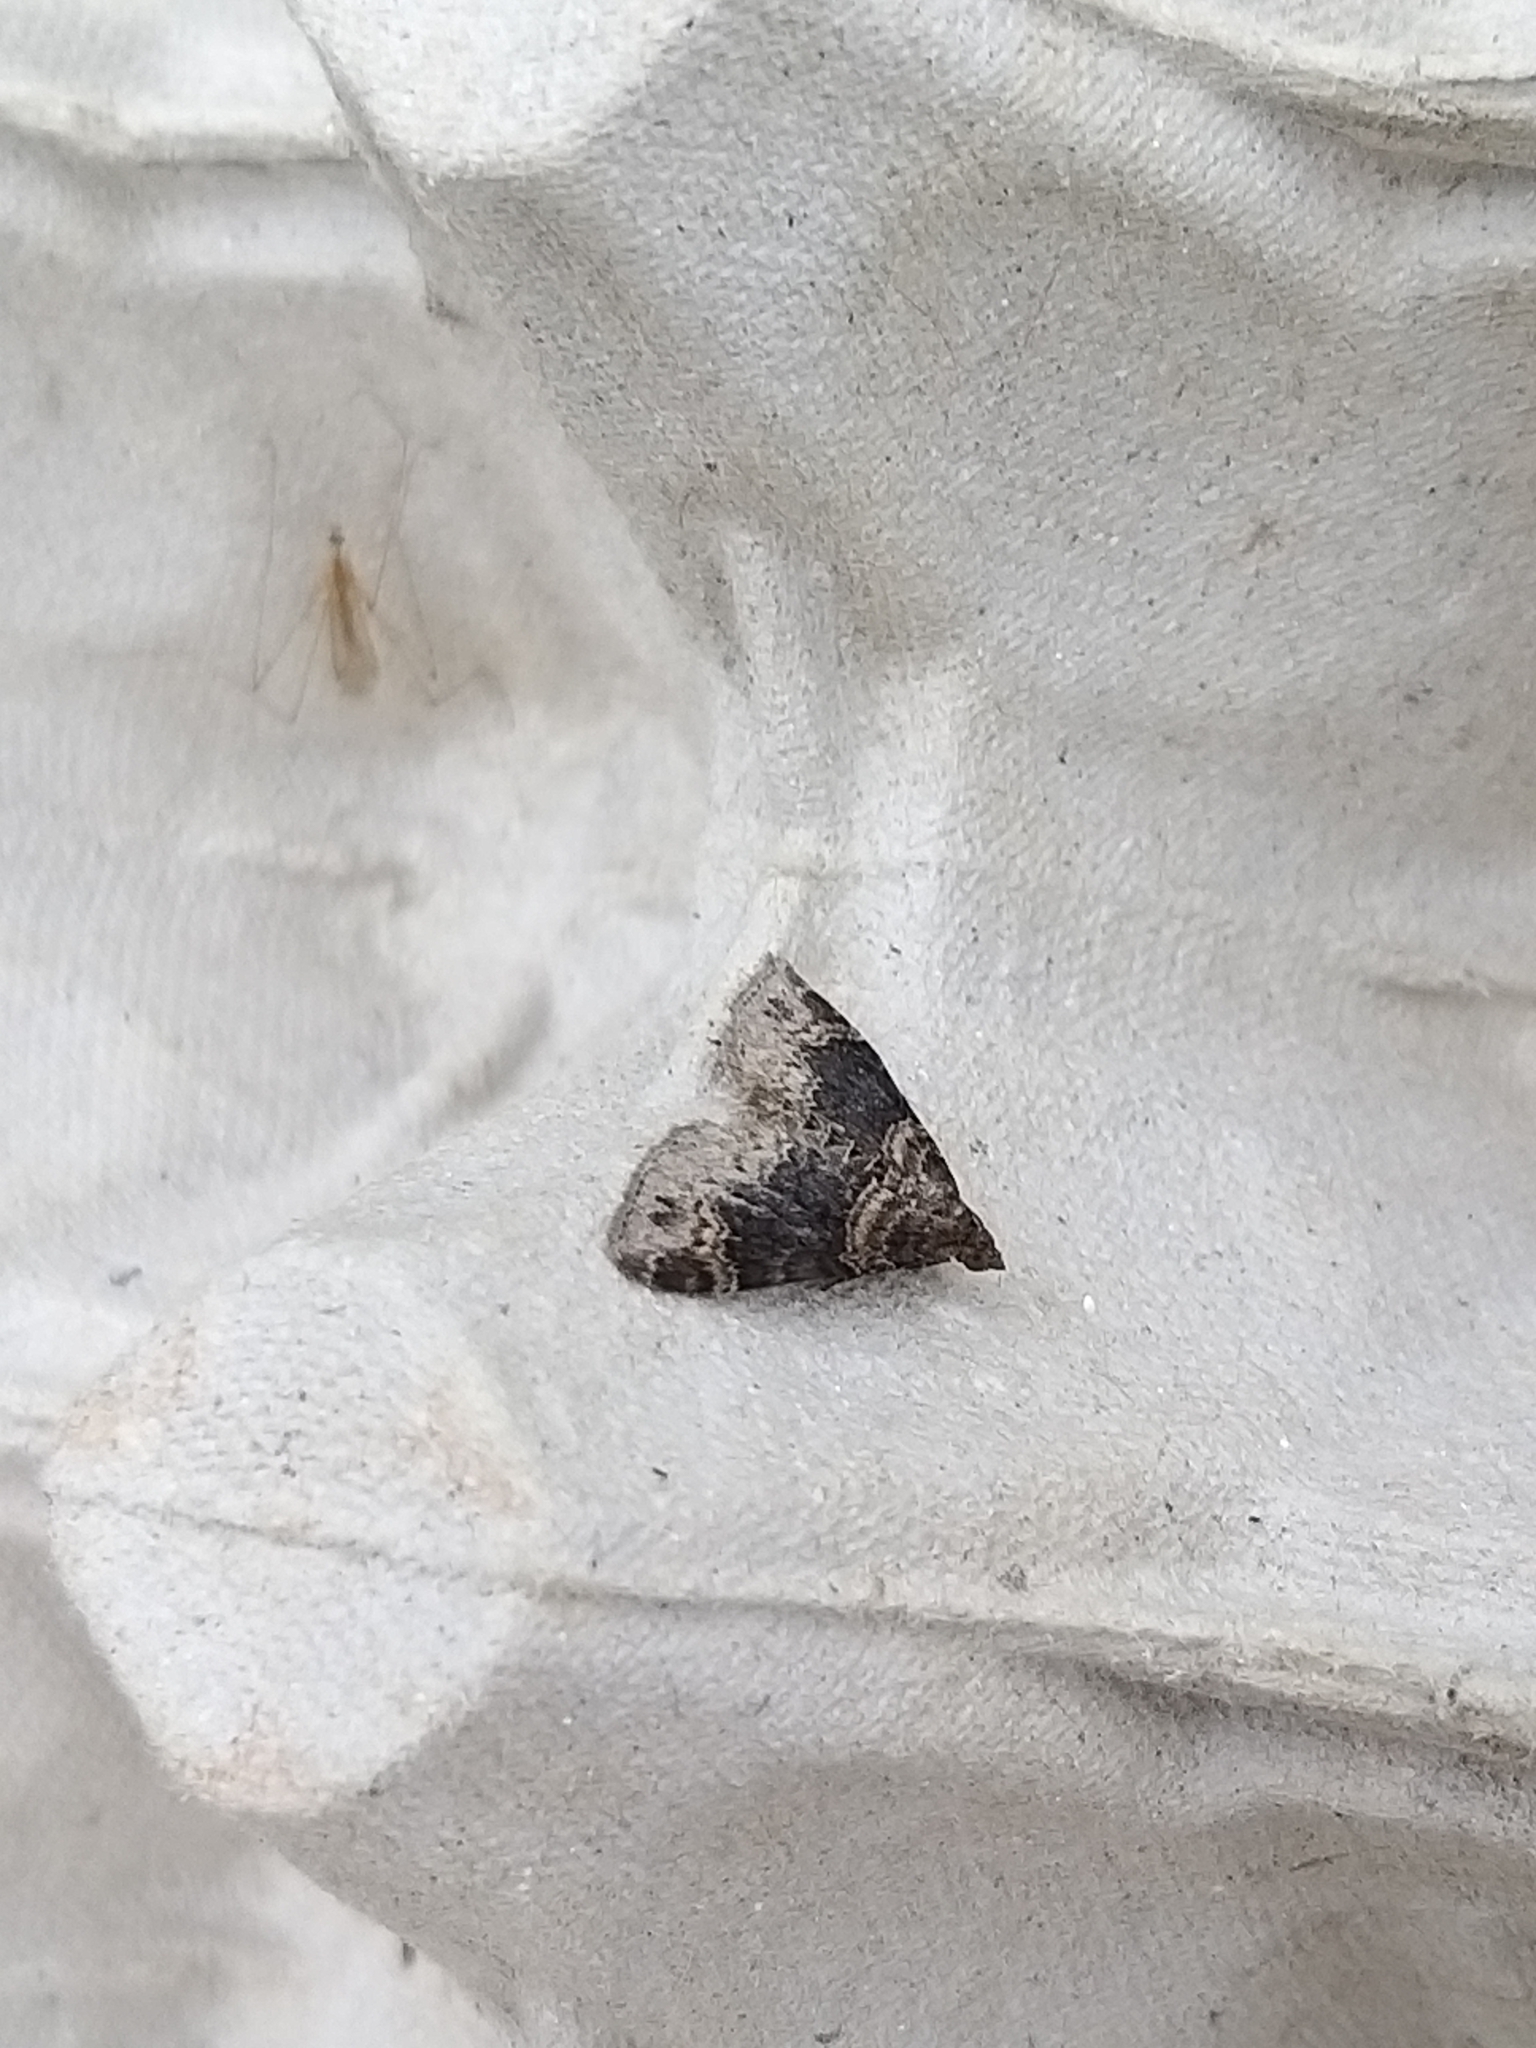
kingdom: Animalia
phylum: Arthropoda
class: Insecta
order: Lepidoptera
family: Geometridae
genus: Xanthorhoe
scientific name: Xanthorhoe ferrugata
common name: Dark-barred twin-spot carpet
